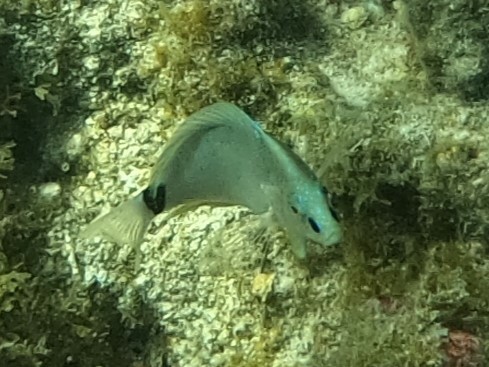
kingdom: Animalia
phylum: Chordata
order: Perciformes
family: Serranidae
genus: Hypoplectrus
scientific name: Hypoplectrus unicolor
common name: Butter hamlet
